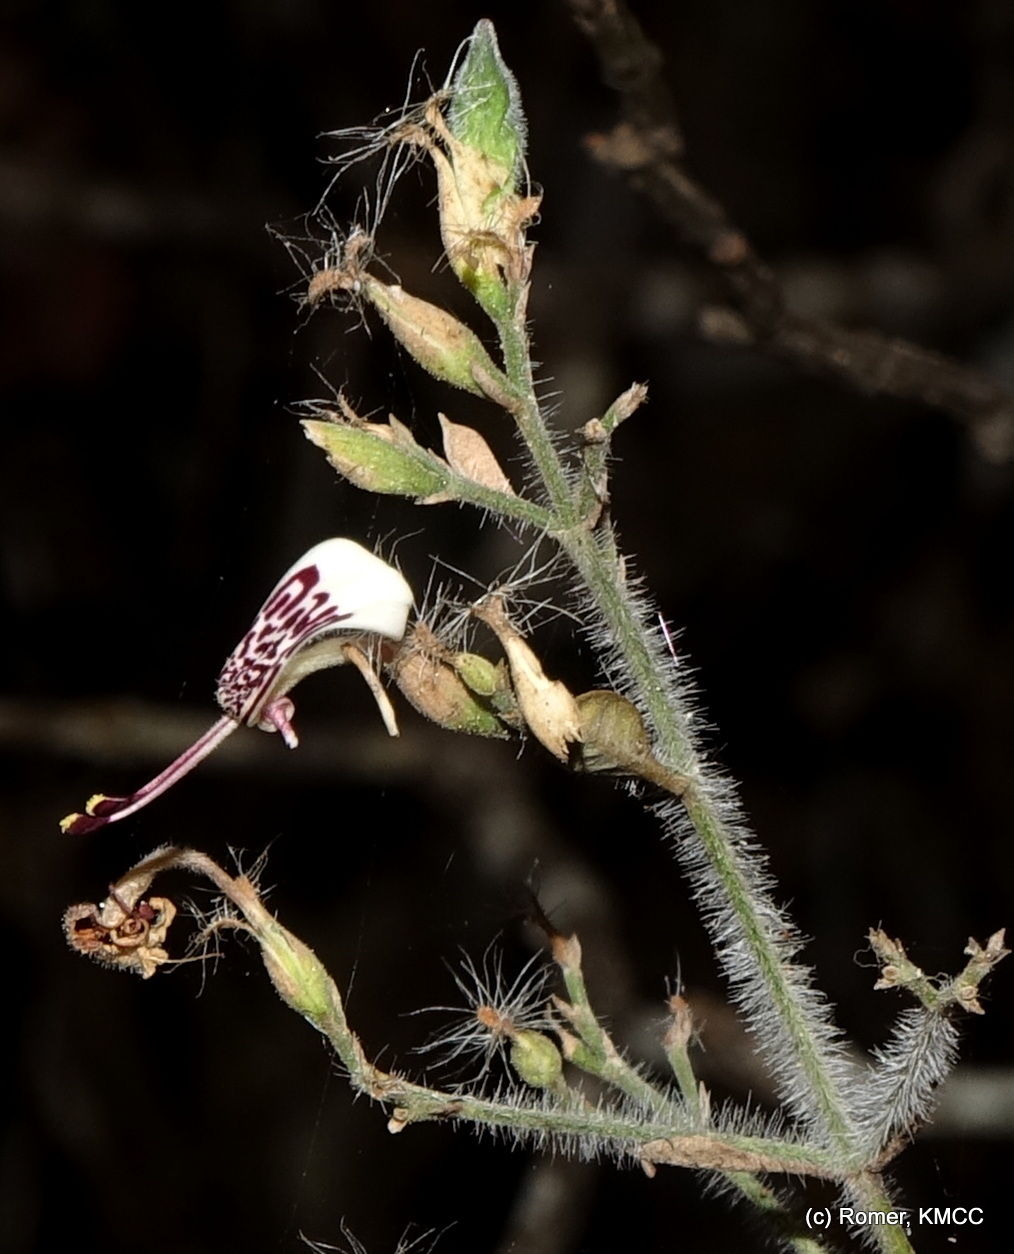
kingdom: Plantae
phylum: Tracheophyta
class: Magnoliopsida
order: Lamiales
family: Acanthaceae
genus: Hypoestes
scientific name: Hypoestes lasioclada
